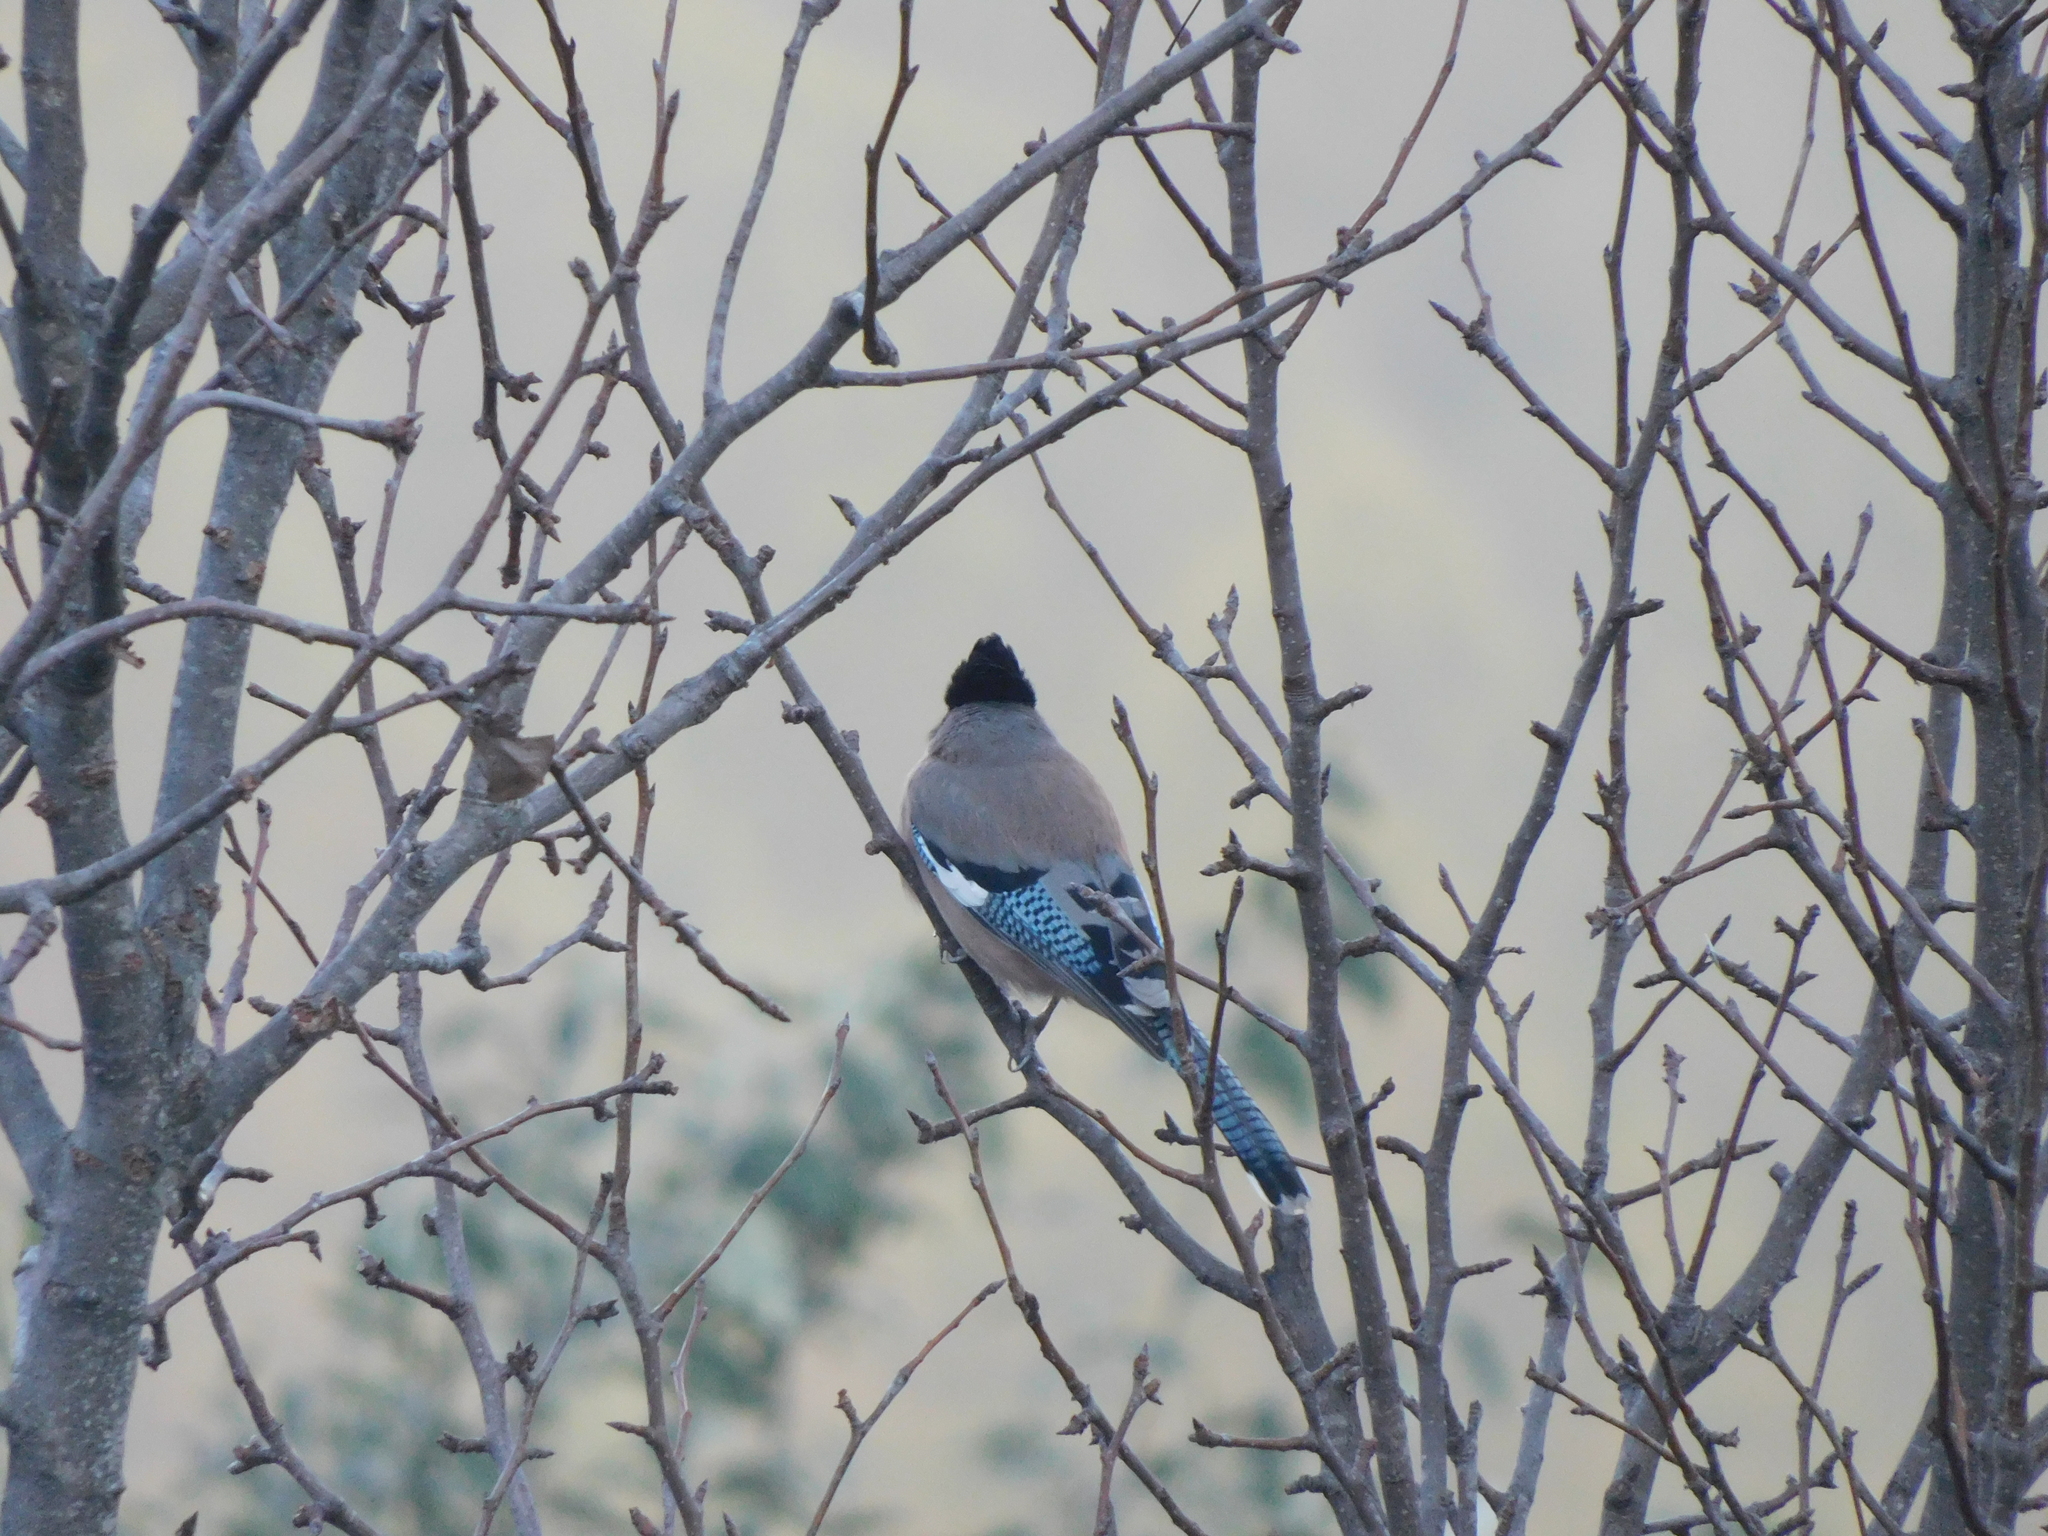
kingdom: Animalia
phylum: Chordata
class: Aves
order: Passeriformes
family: Corvidae
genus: Garrulus
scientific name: Garrulus lanceolatus
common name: Black-headed jay
